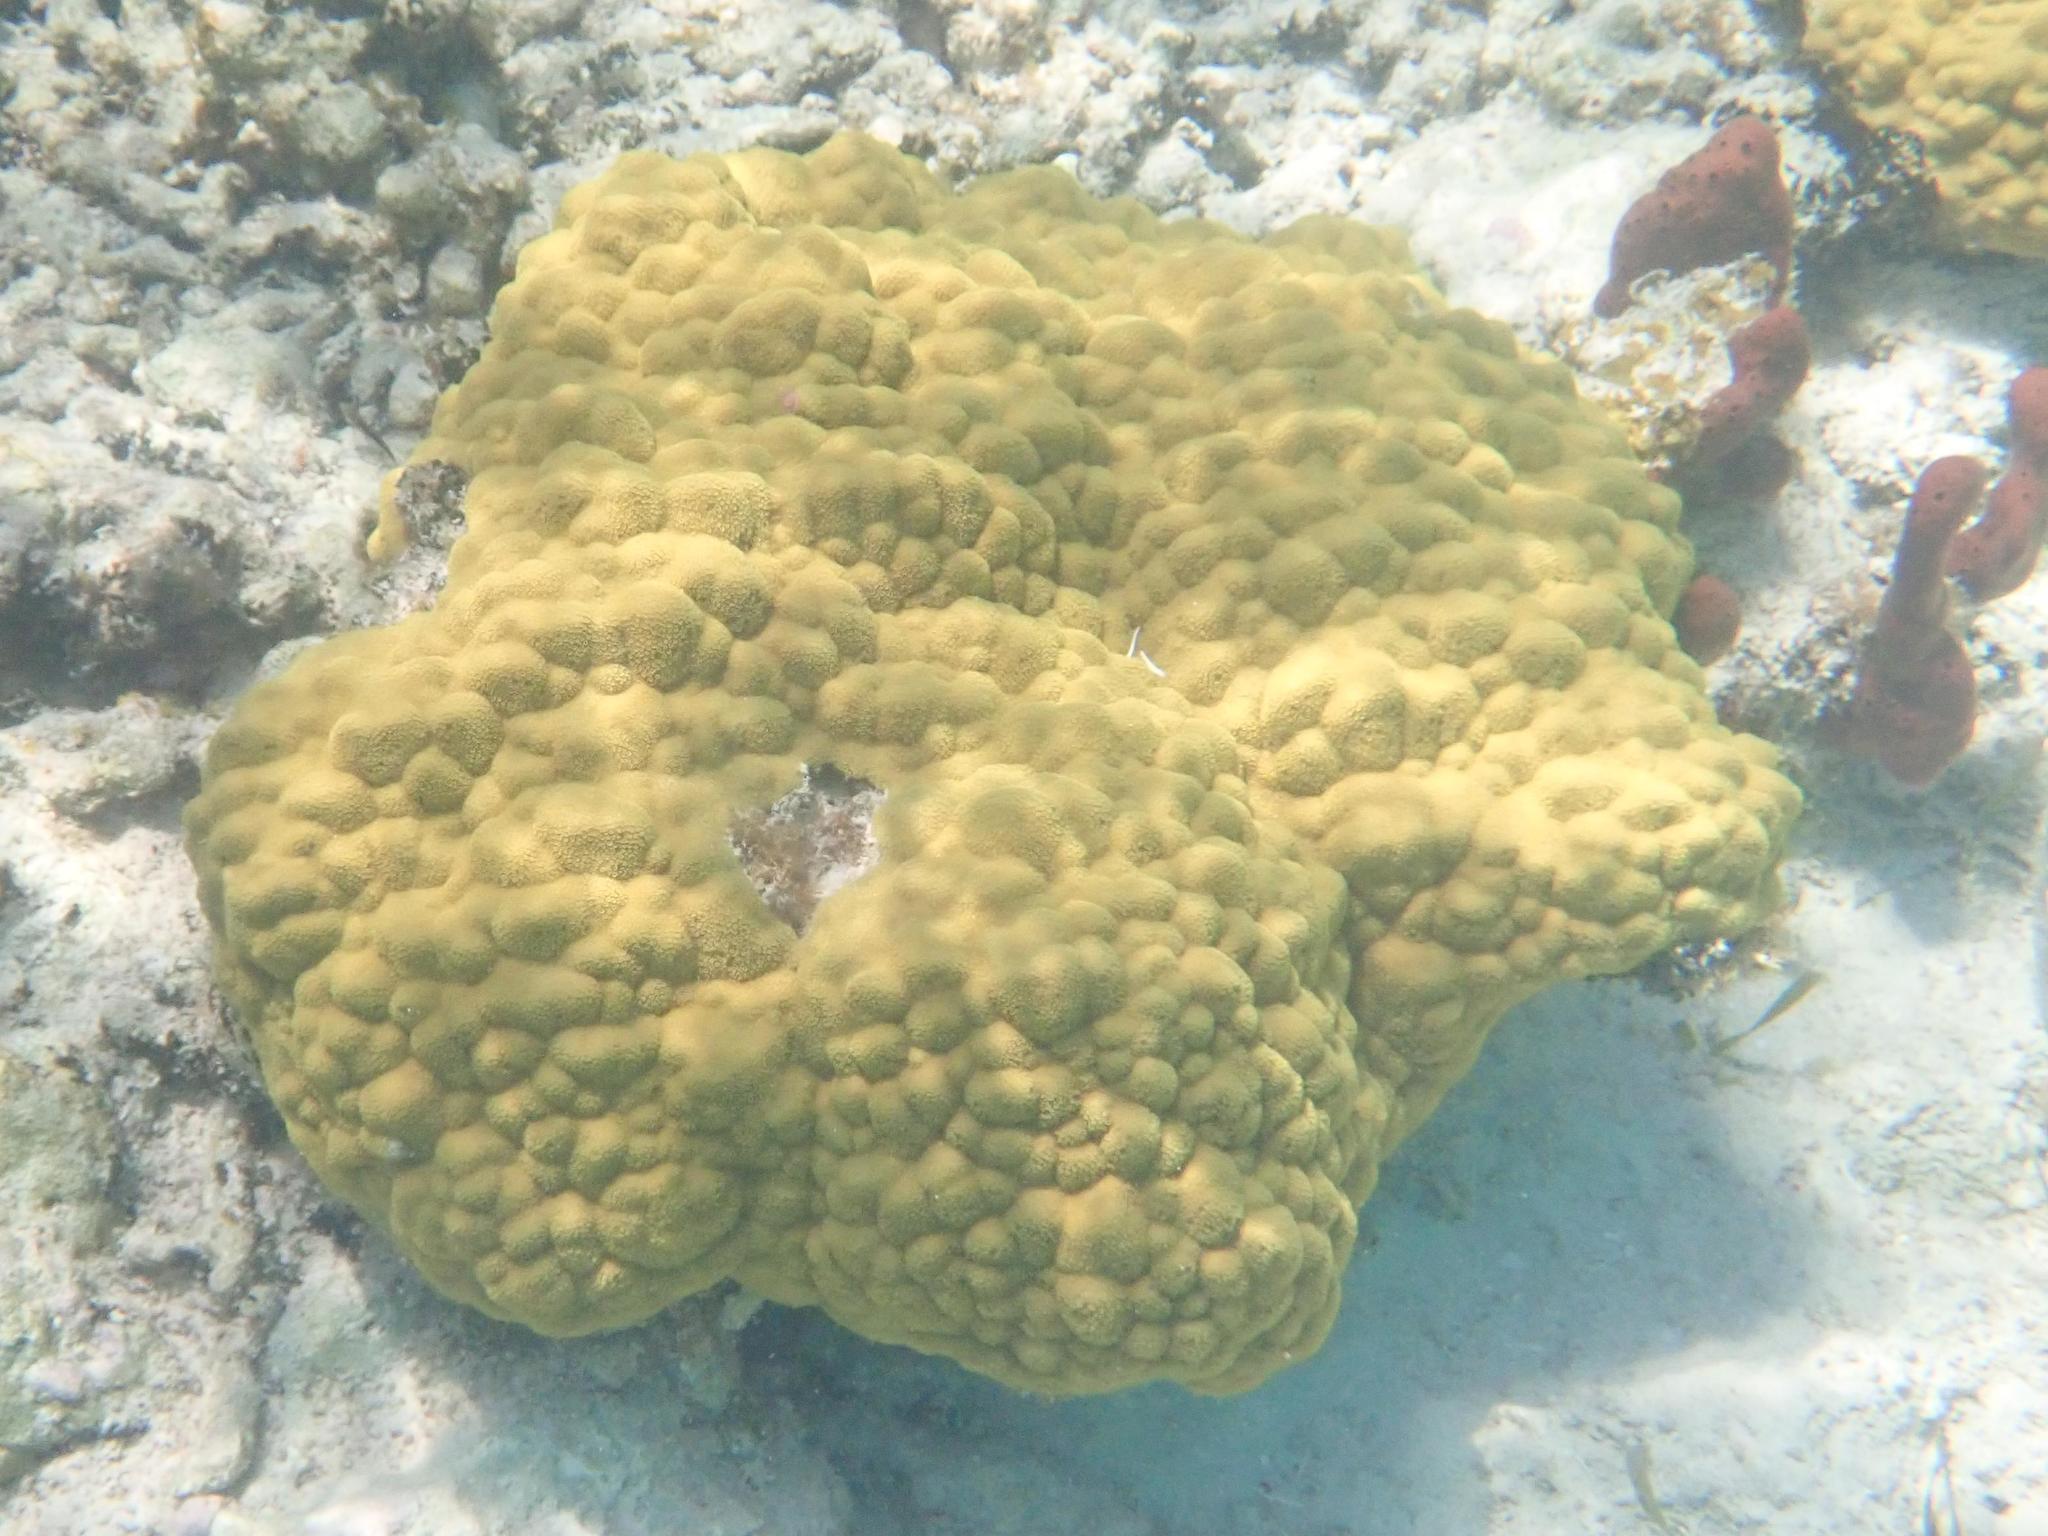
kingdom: Animalia
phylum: Cnidaria
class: Anthozoa
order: Scleractinia
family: Poritidae
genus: Porites
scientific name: Porites astreoides
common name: Mustard hill coral
